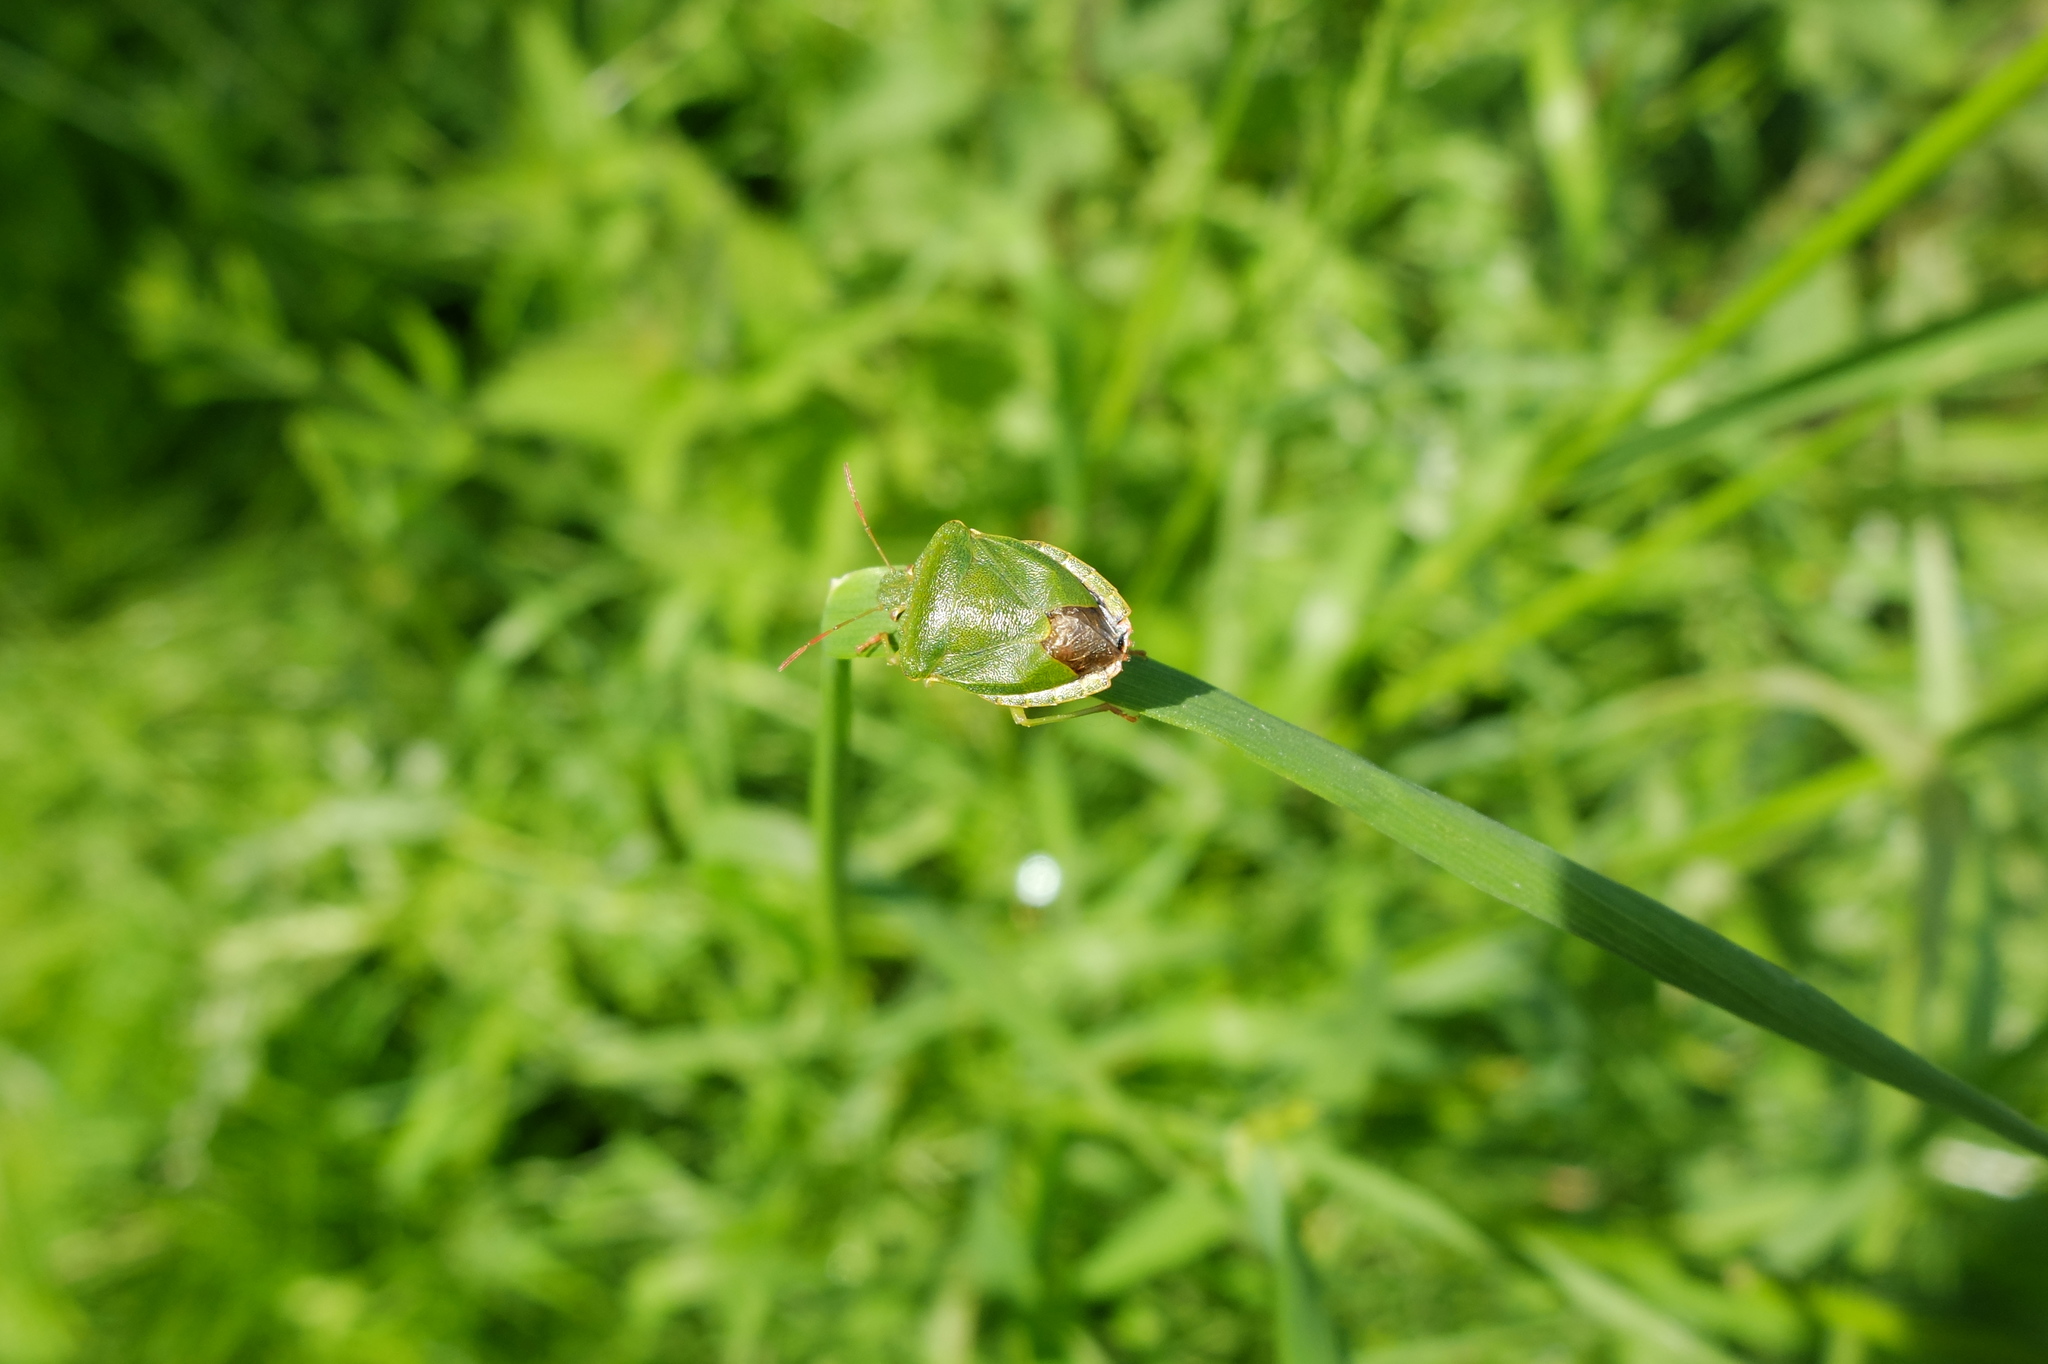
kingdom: Animalia
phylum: Arthropoda
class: Insecta
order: Hemiptera
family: Pentatomidae
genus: Palomena
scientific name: Palomena prasina
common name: Green shieldbug
